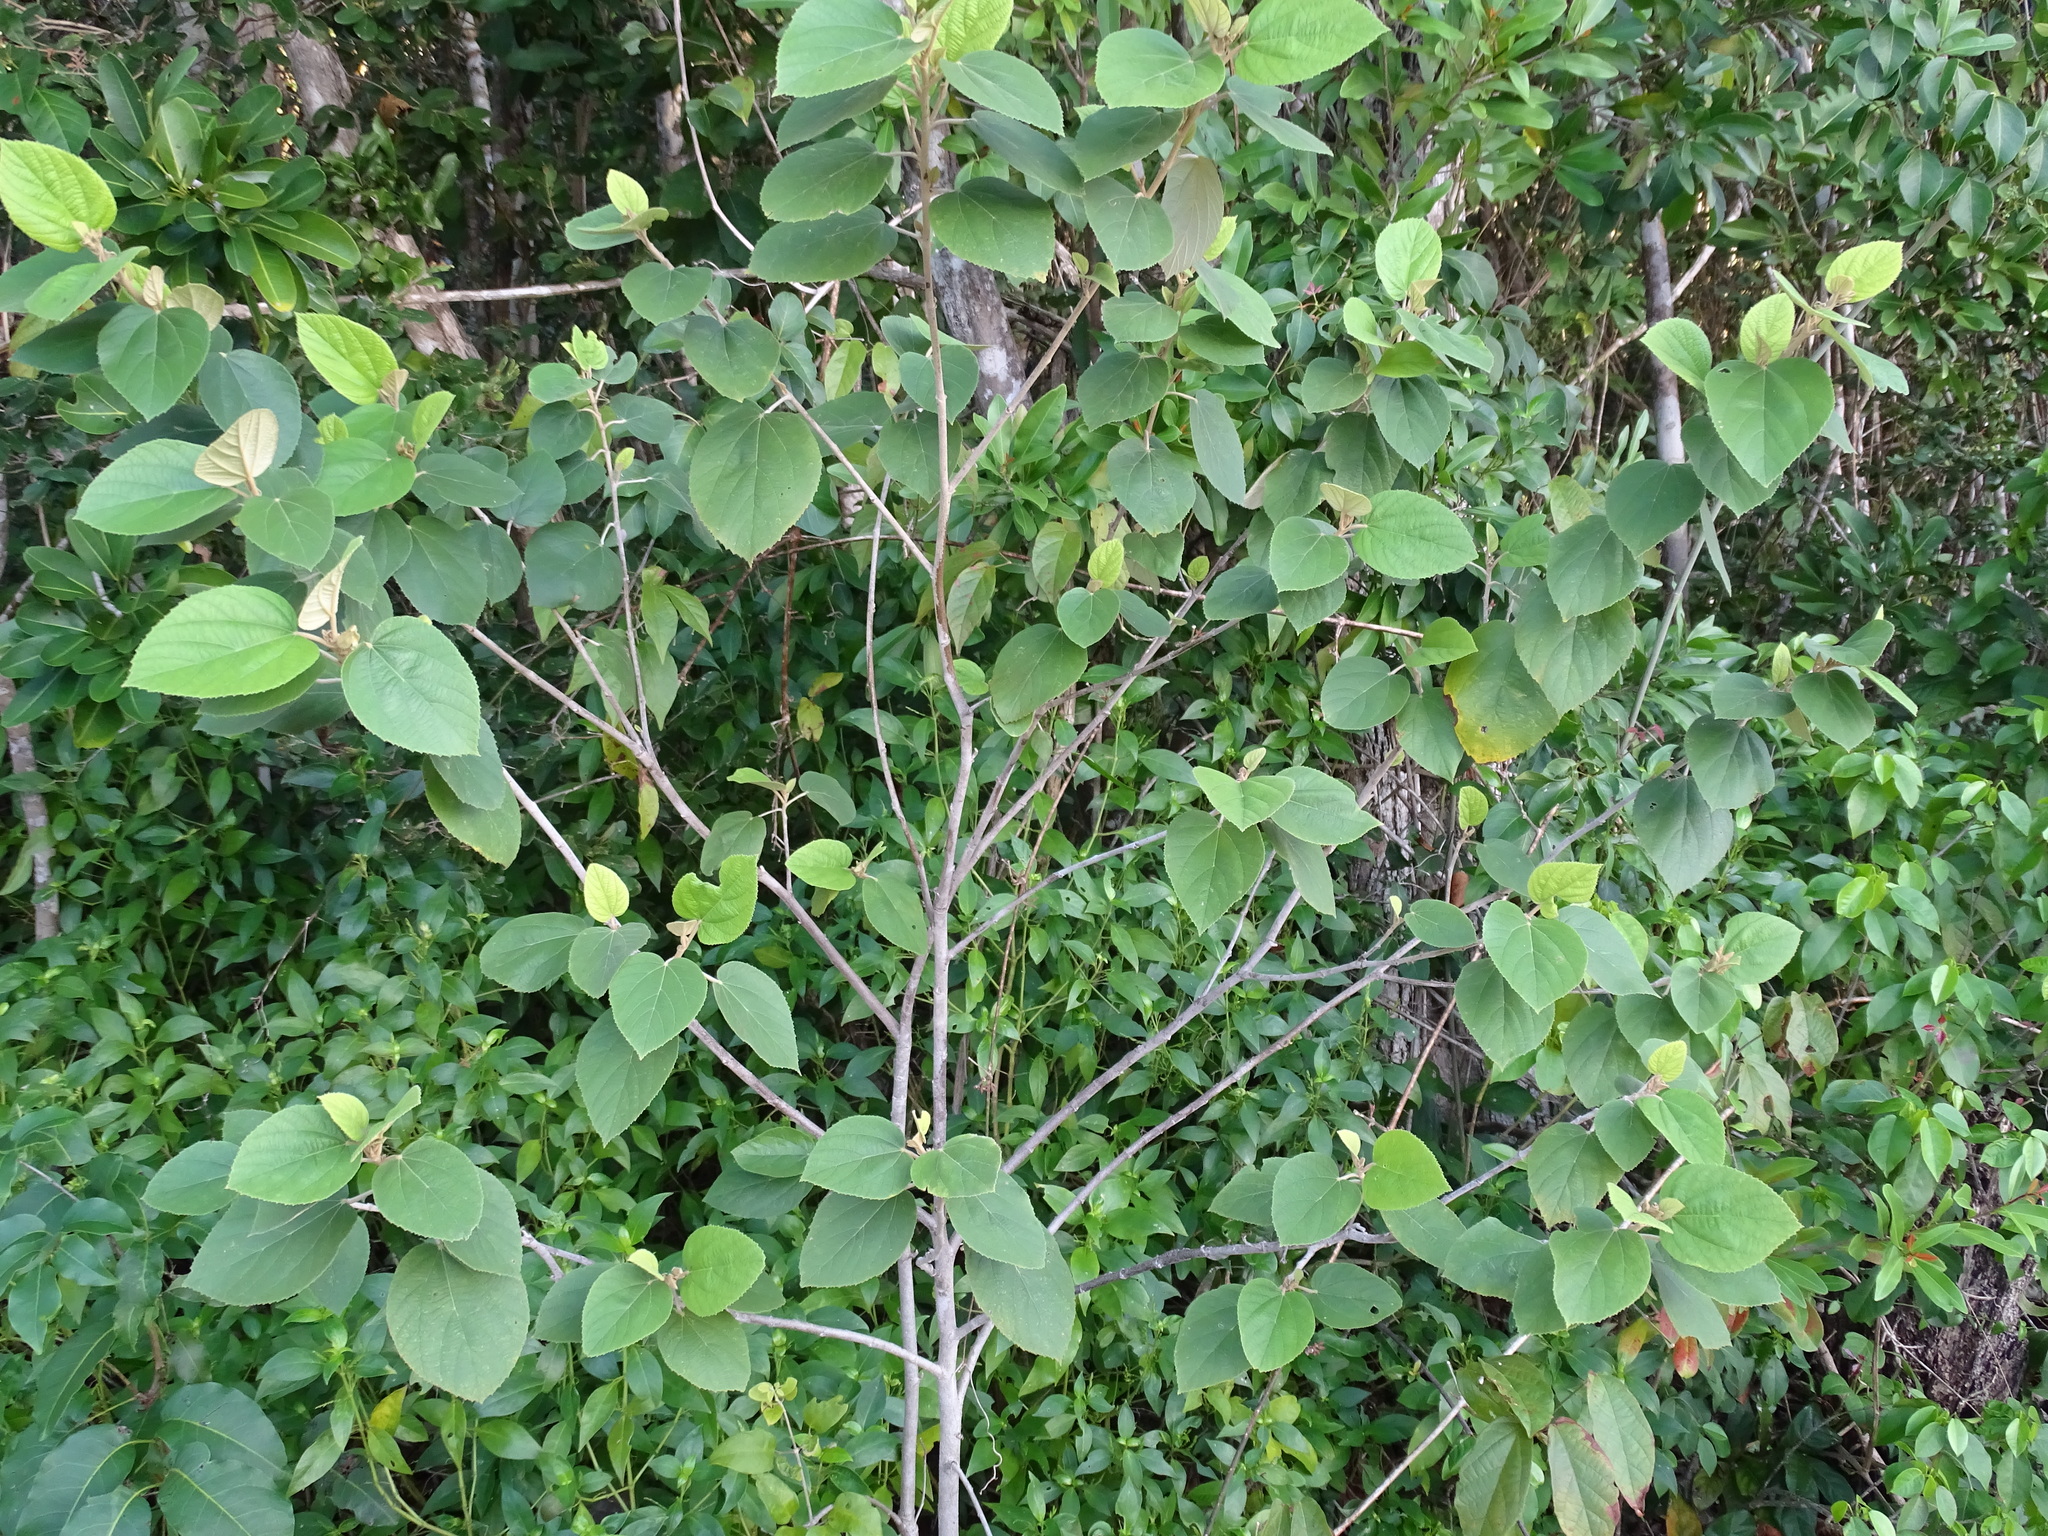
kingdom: Plantae
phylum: Tracheophyta
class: Magnoliopsida
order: Malvales
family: Malvaceae
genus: Helicteres
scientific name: Helicteres baruensis
